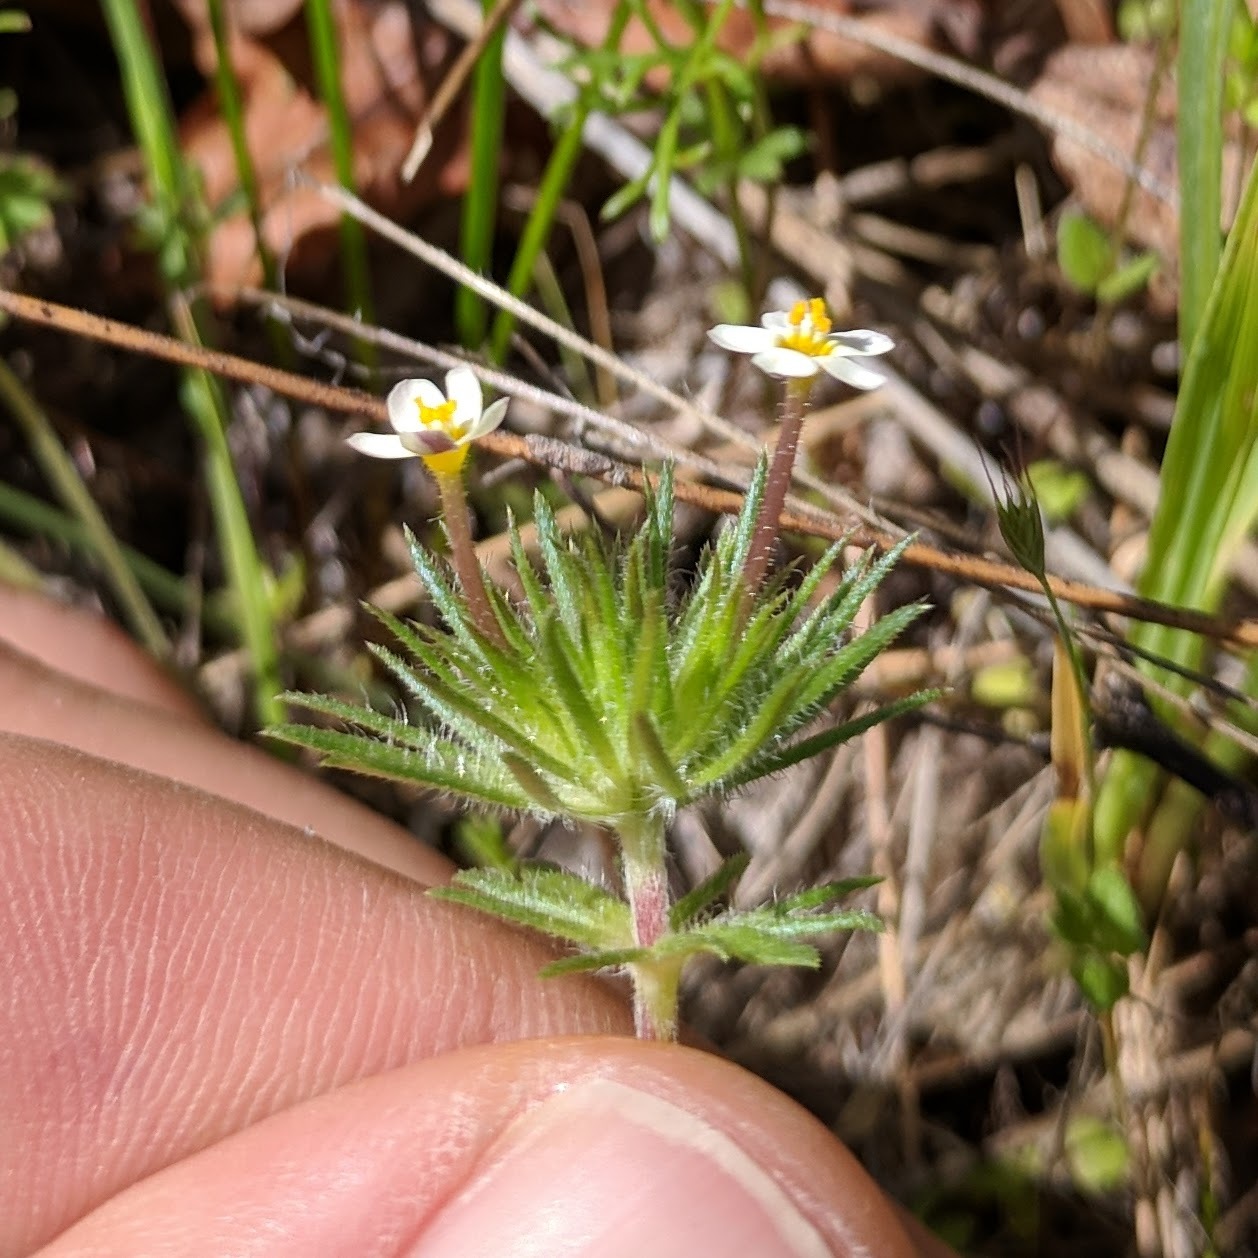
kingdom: Plantae
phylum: Tracheophyta
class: Magnoliopsida
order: Ericales
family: Polemoniaceae
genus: Leptosiphon
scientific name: Leptosiphon bicolor
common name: True babystars
